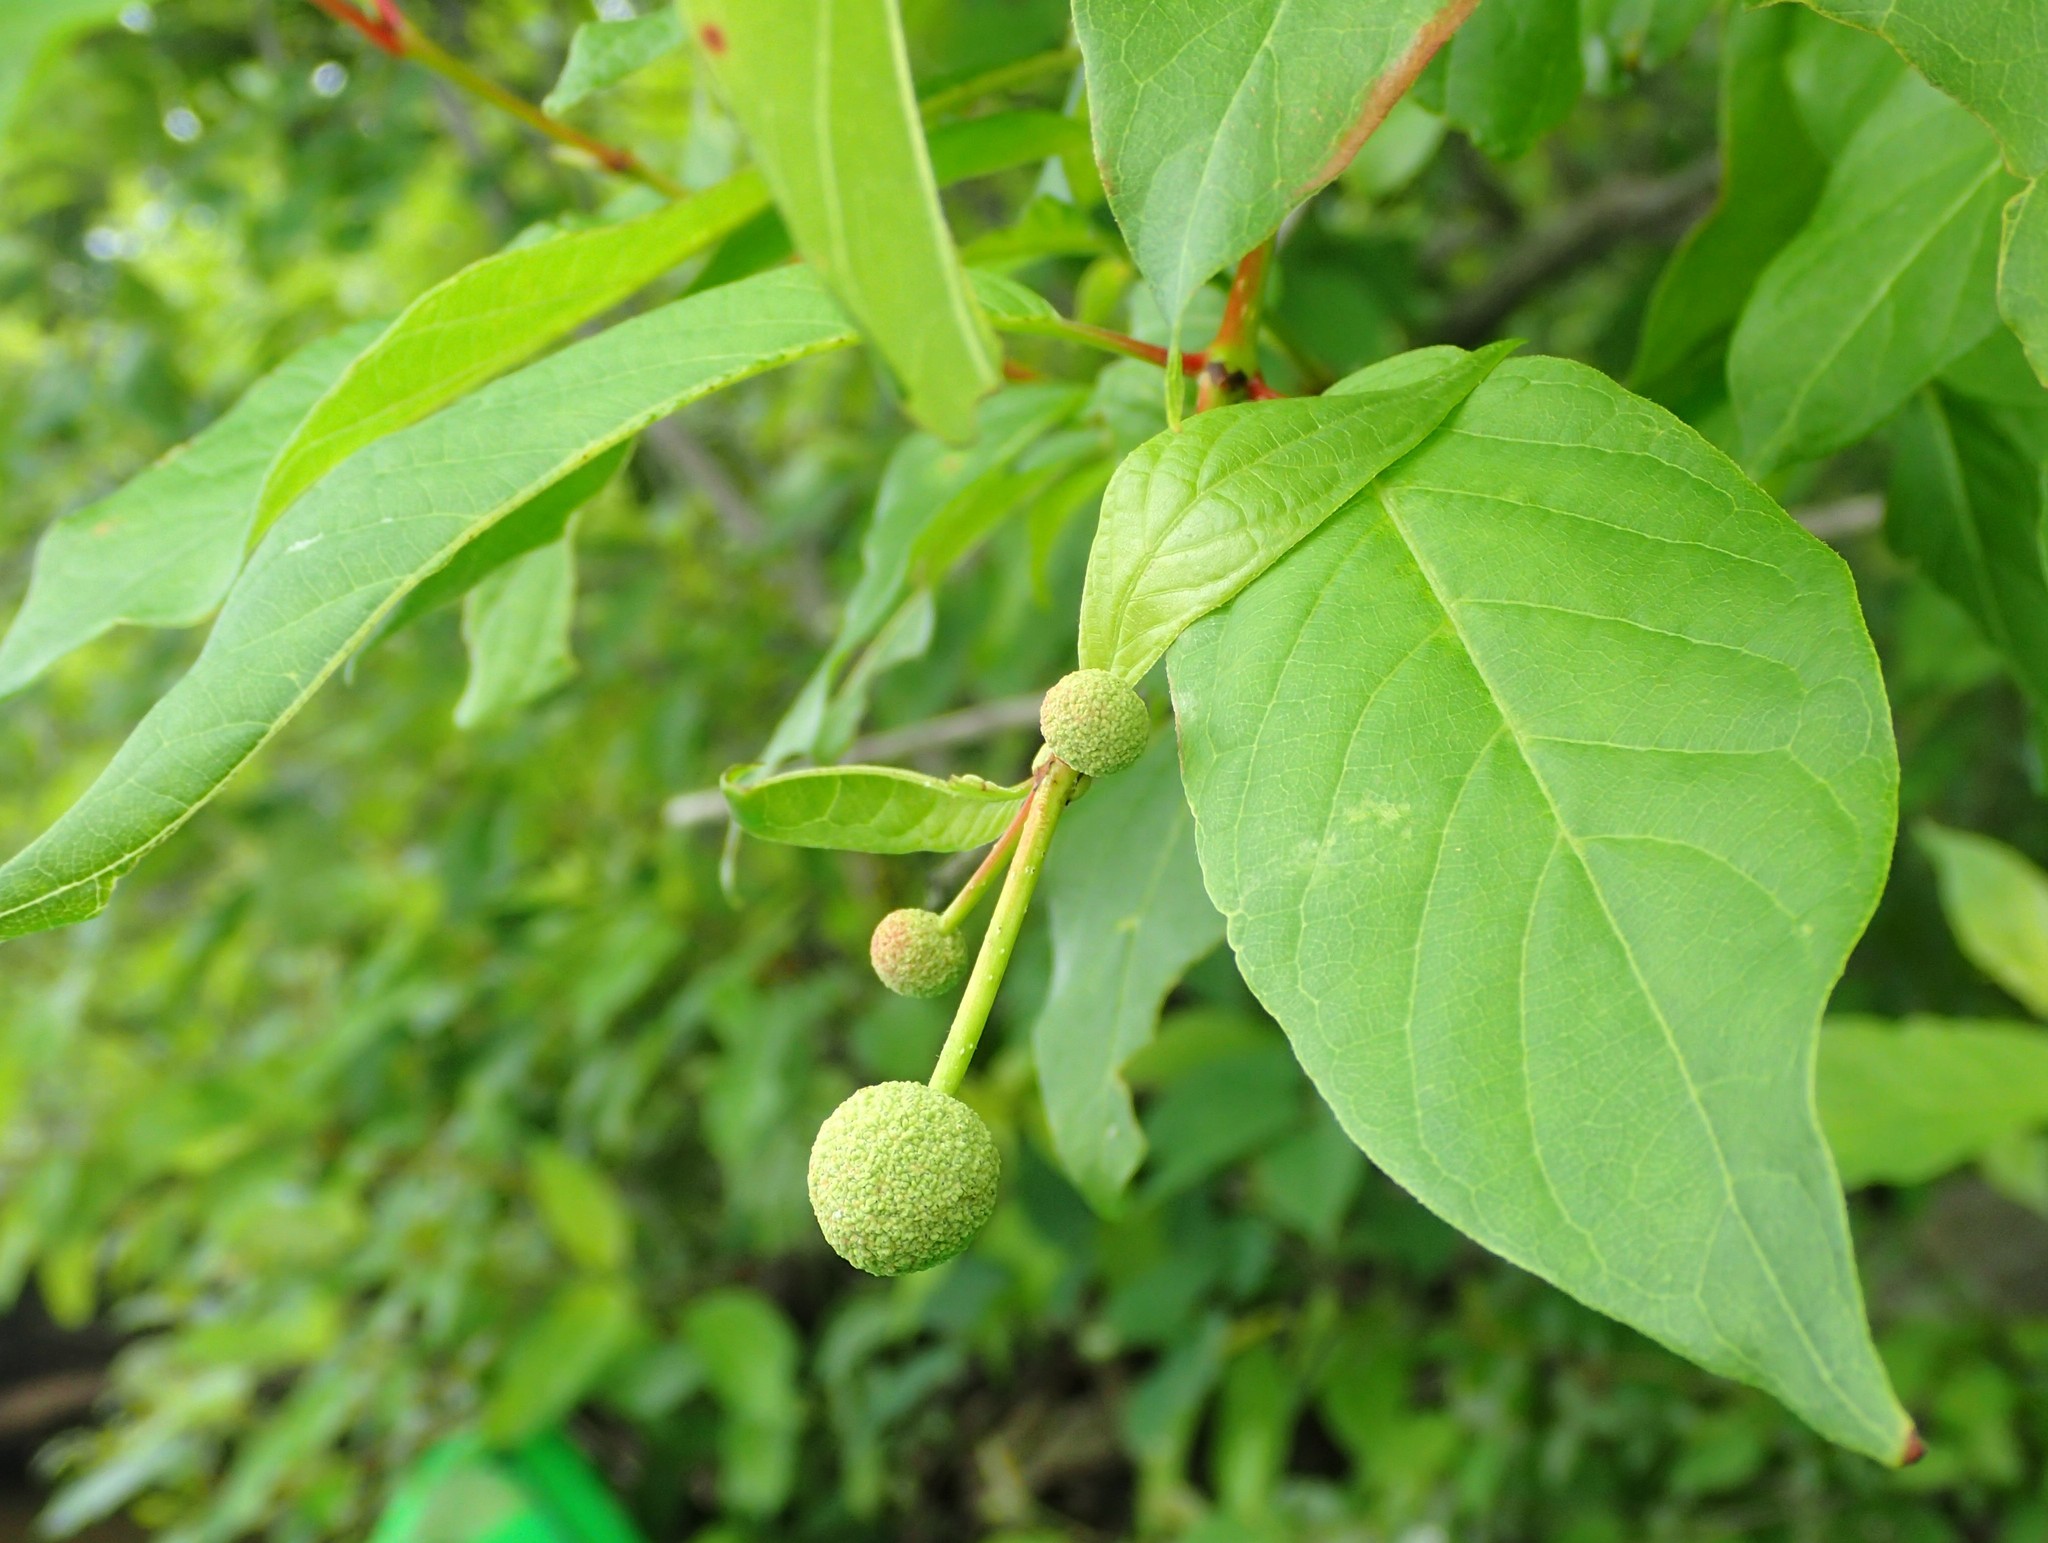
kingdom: Plantae
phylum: Tracheophyta
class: Magnoliopsida
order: Gentianales
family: Rubiaceae
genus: Cephalanthus
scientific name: Cephalanthus occidentalis
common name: Button-willow
